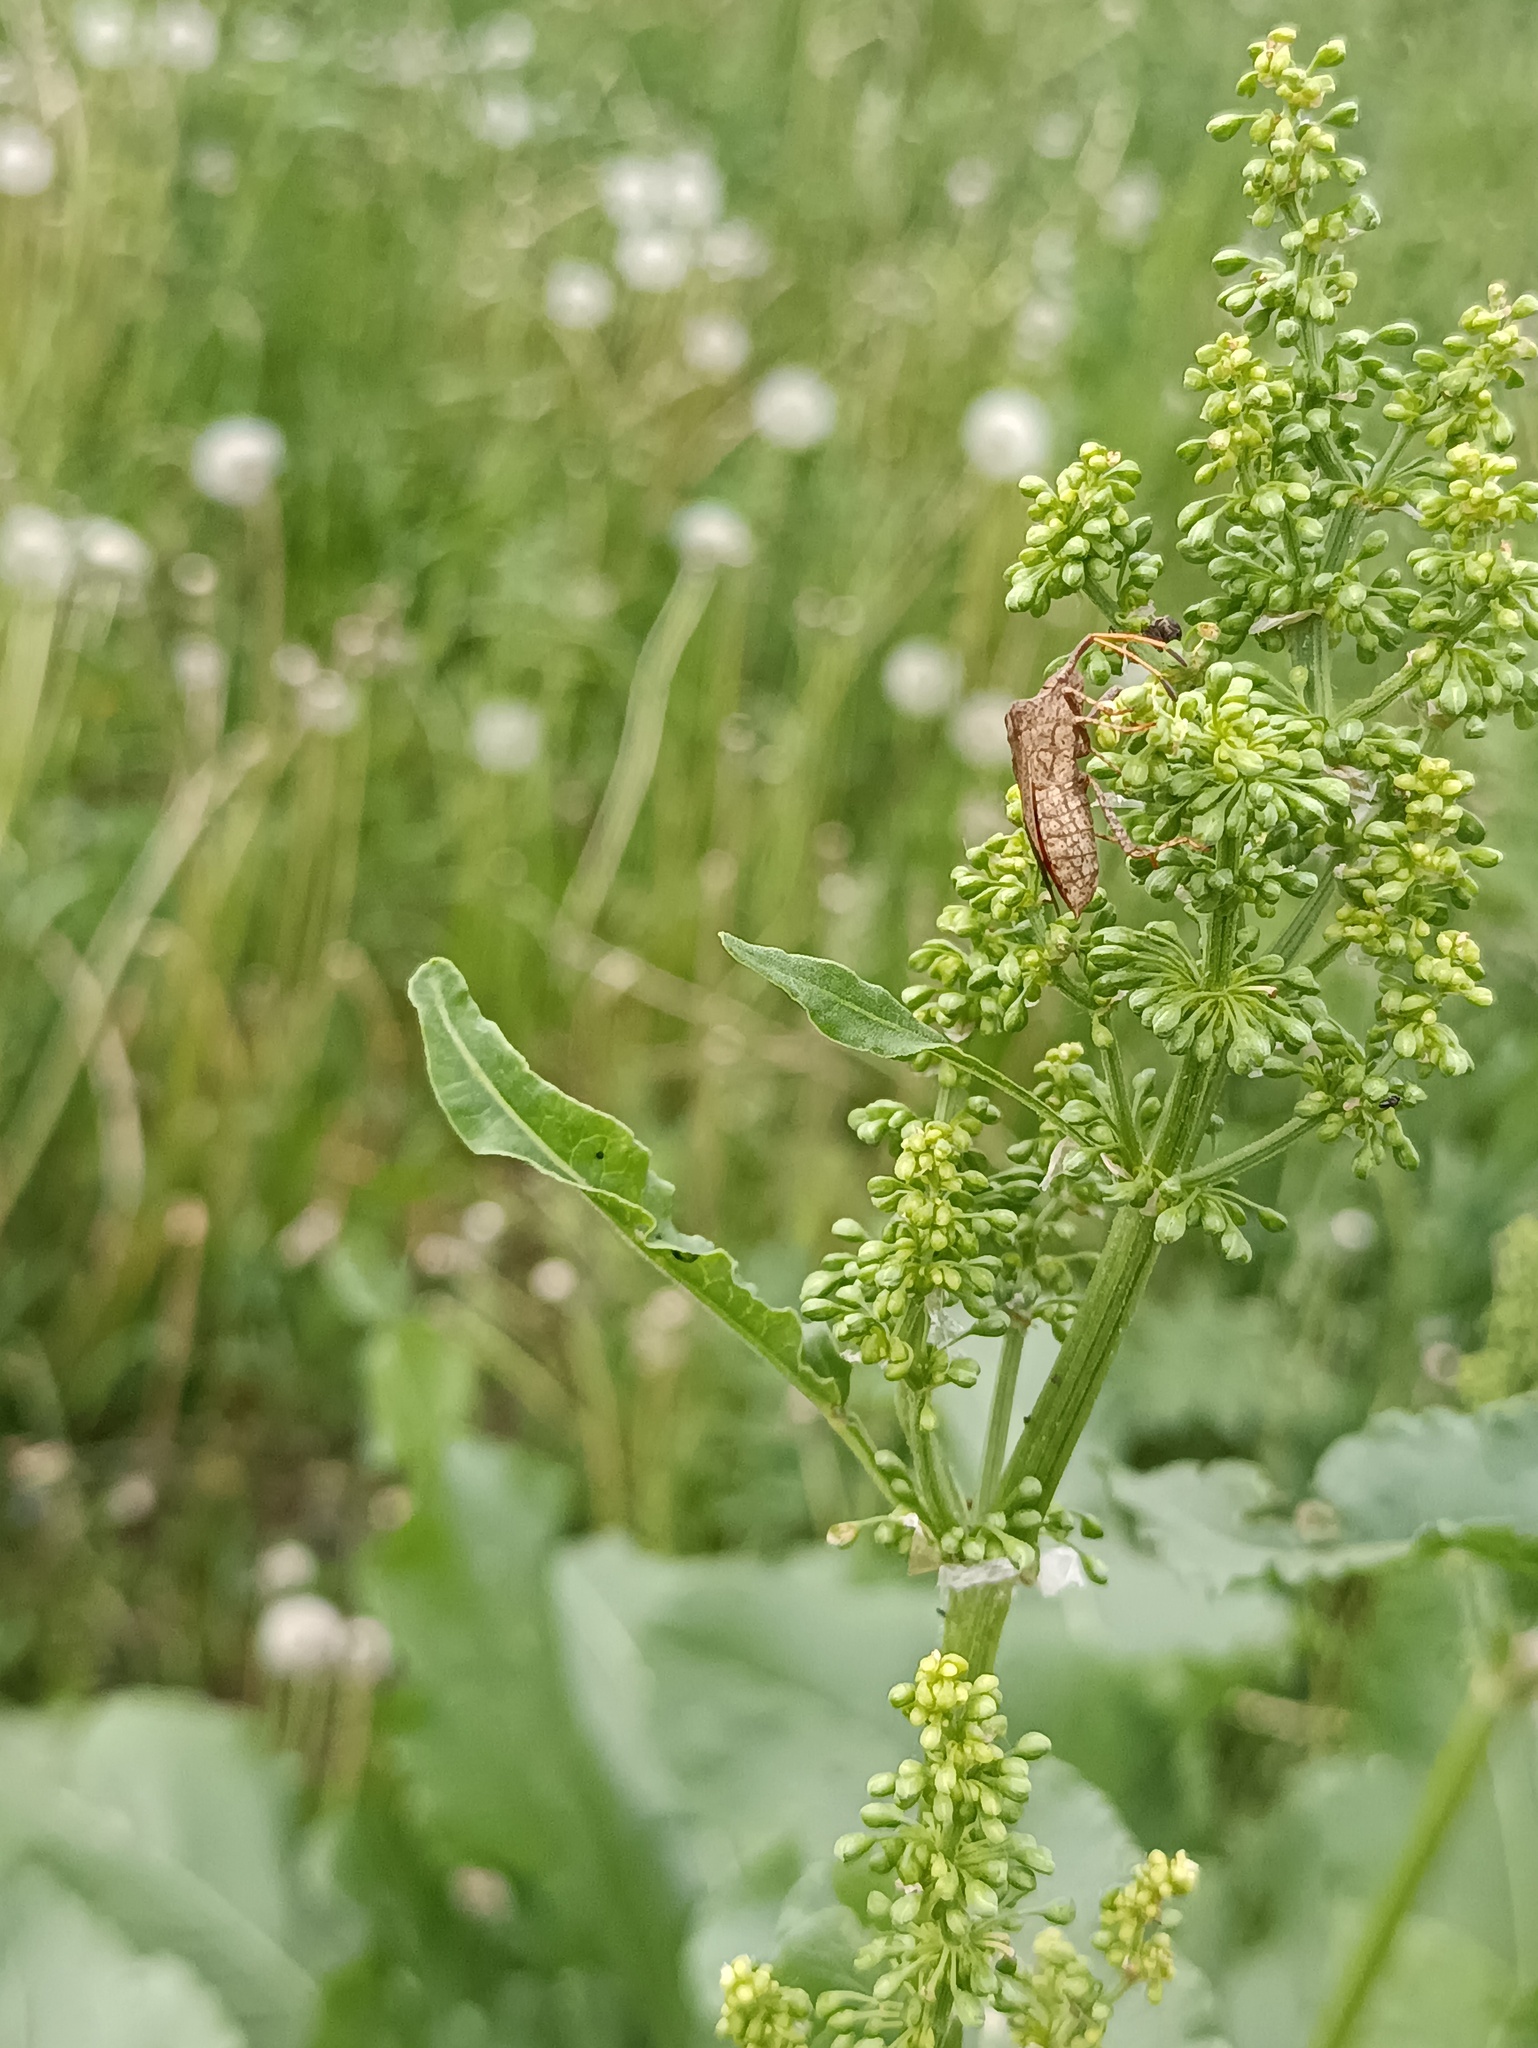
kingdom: Animalia
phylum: Arthropoda
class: Insecta
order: Hemiptera
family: Coreidae
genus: Coreus
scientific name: Coreus marginatus
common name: Dock bug
